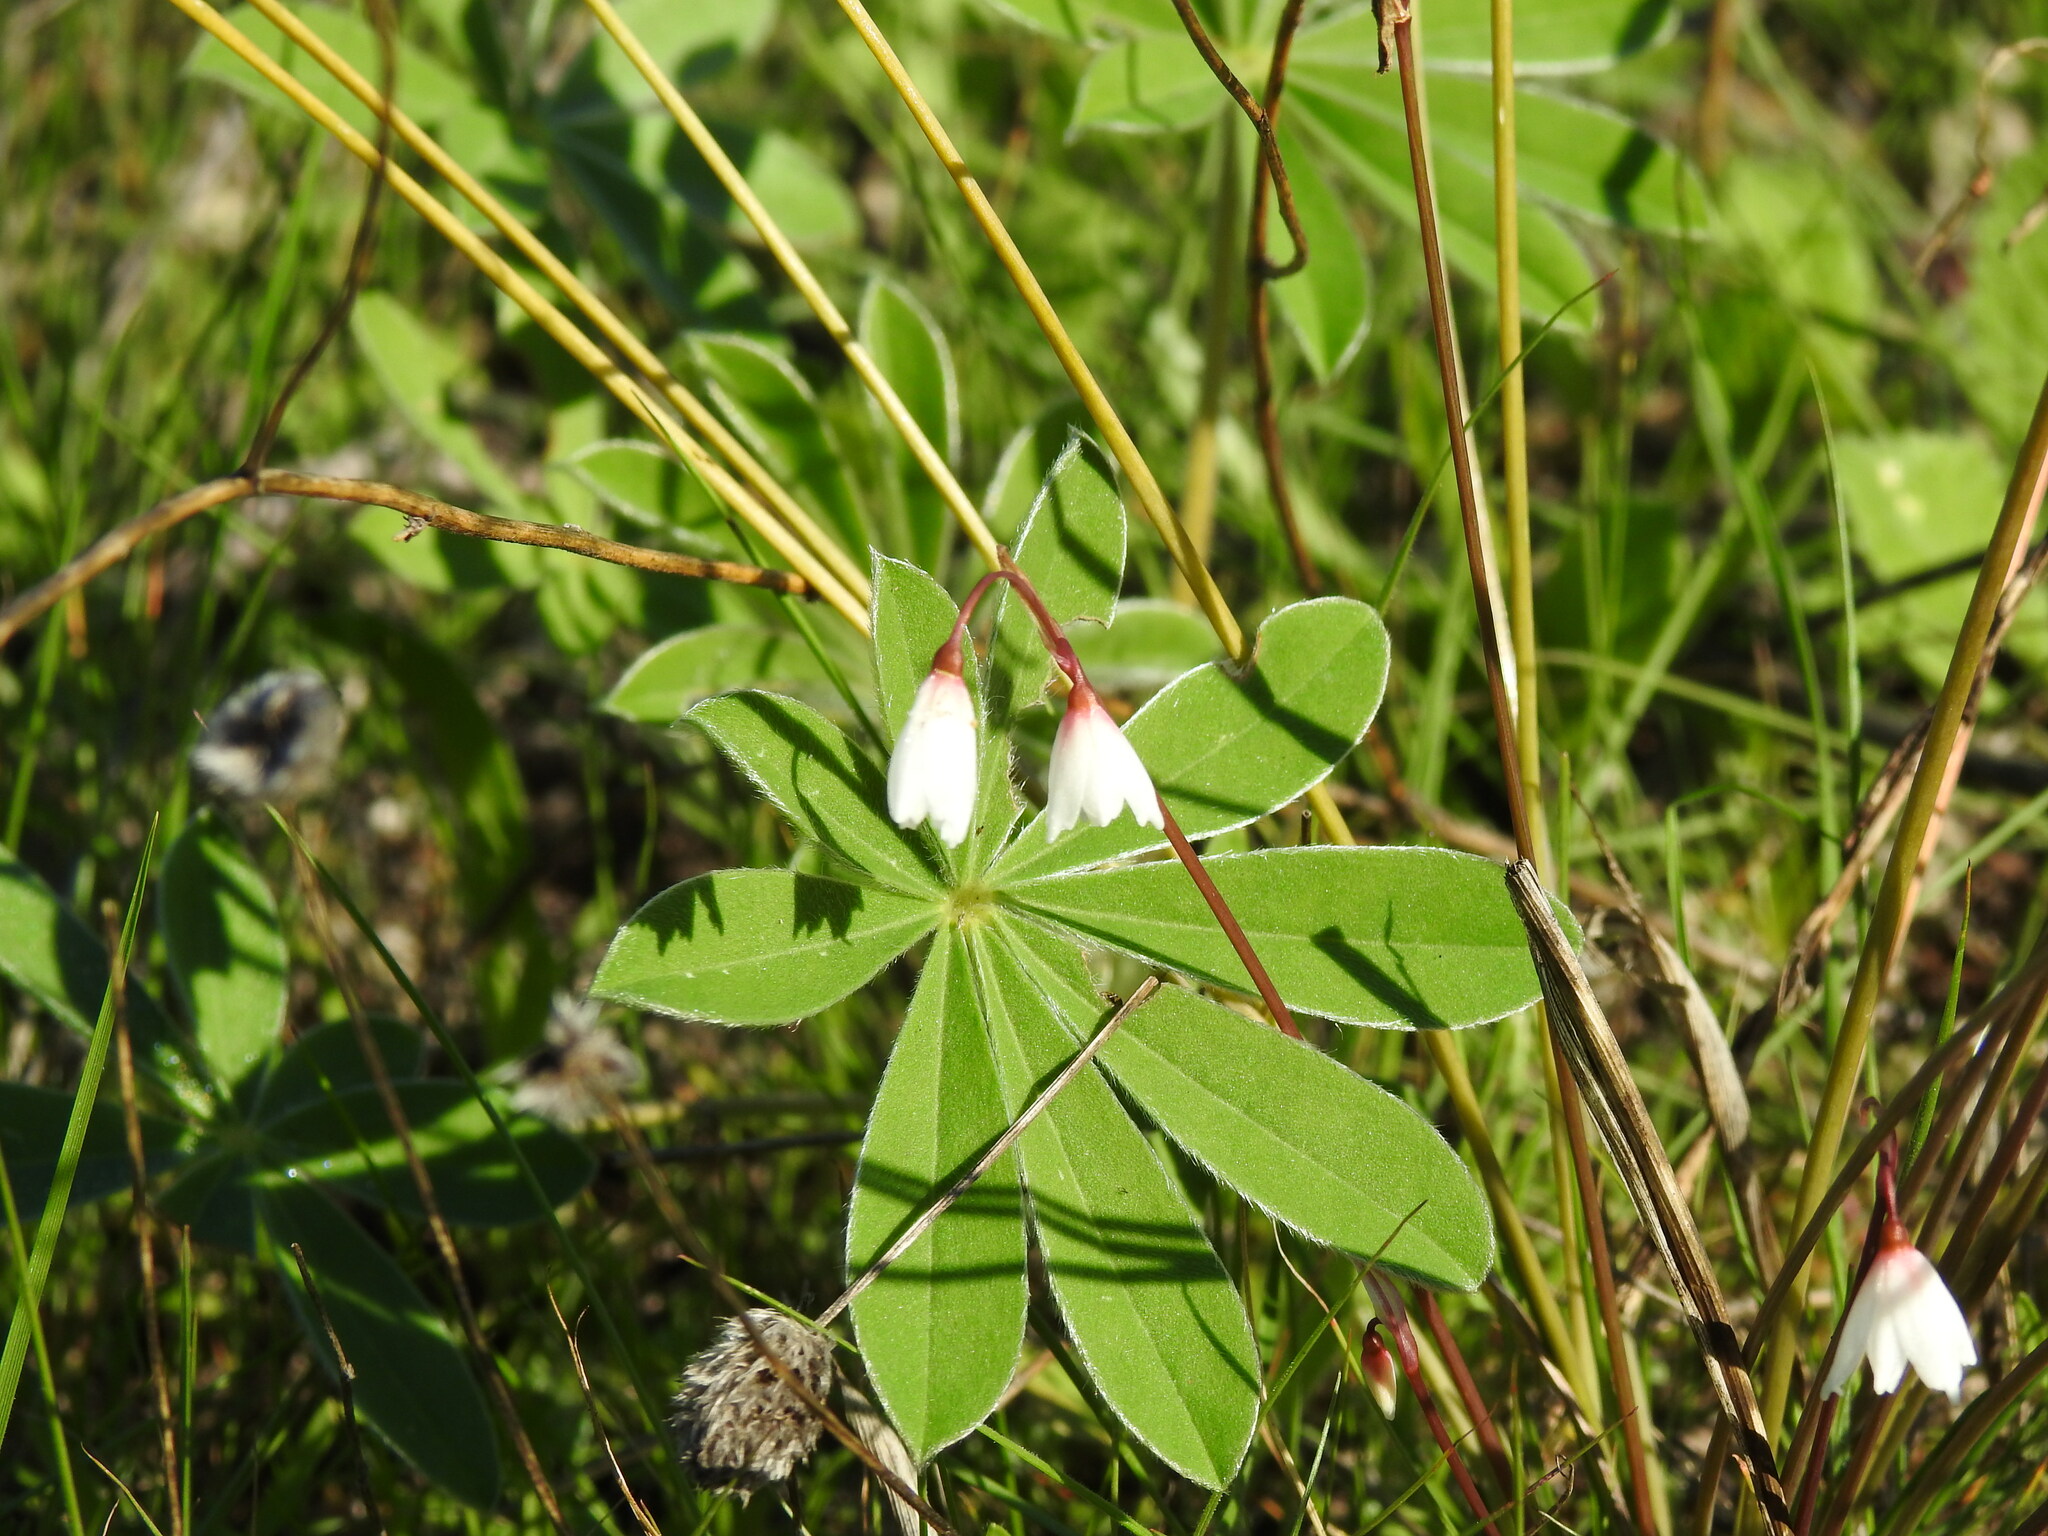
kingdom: Plantae
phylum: Tracheophyta
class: Liliopsida
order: Asparagales
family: Amaryllidaceae
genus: Acis
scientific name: Acis autumnalis
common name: Autumn snowflake
